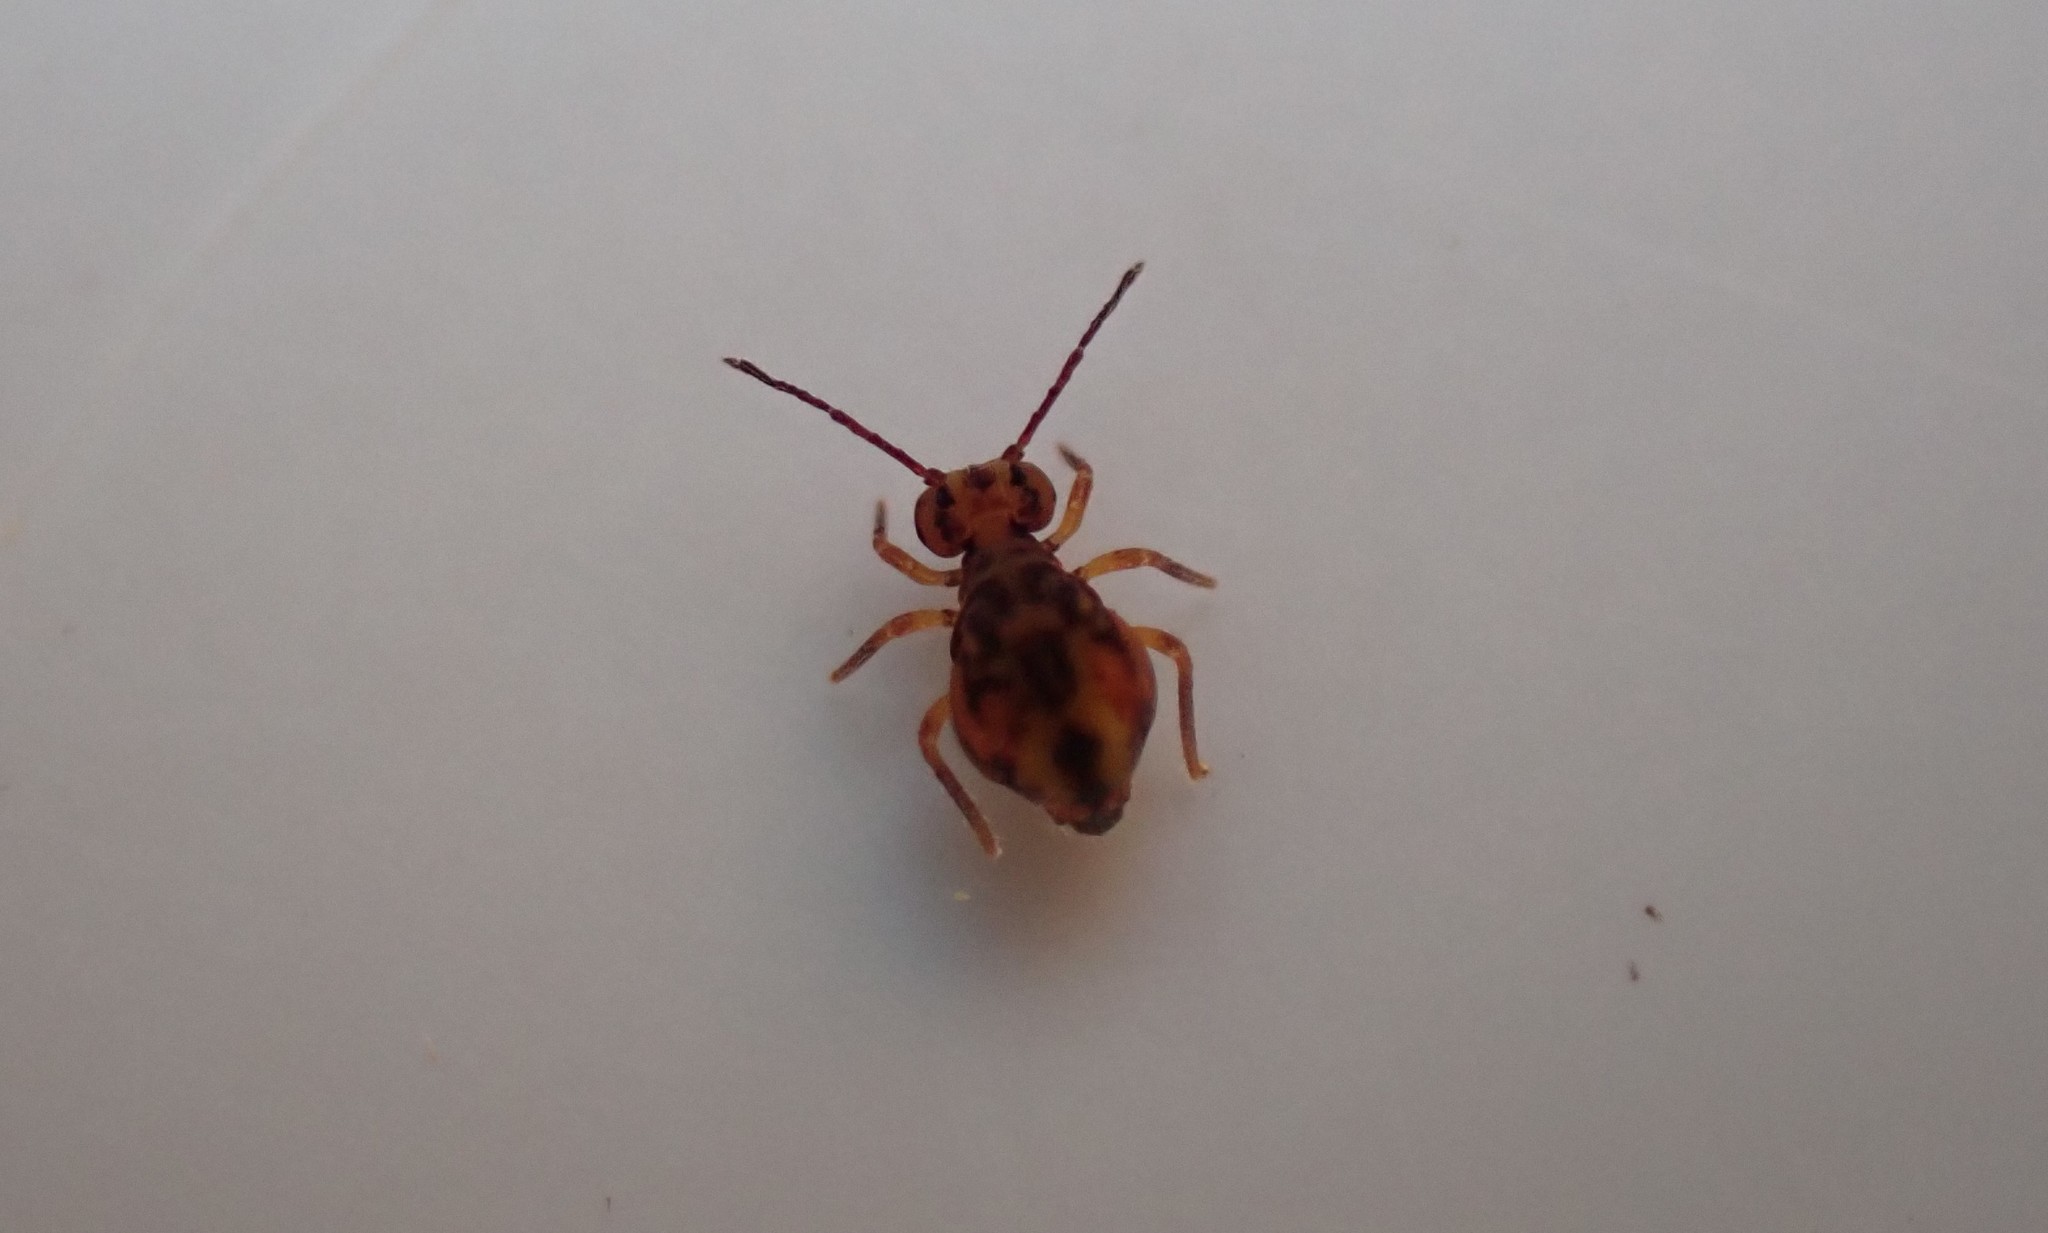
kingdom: Animalia
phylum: Arthropoda
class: Collembola
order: Symphypleona
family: Dicyrtomidae
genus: Dicyrtomina
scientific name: Dicyrtomina ornata
